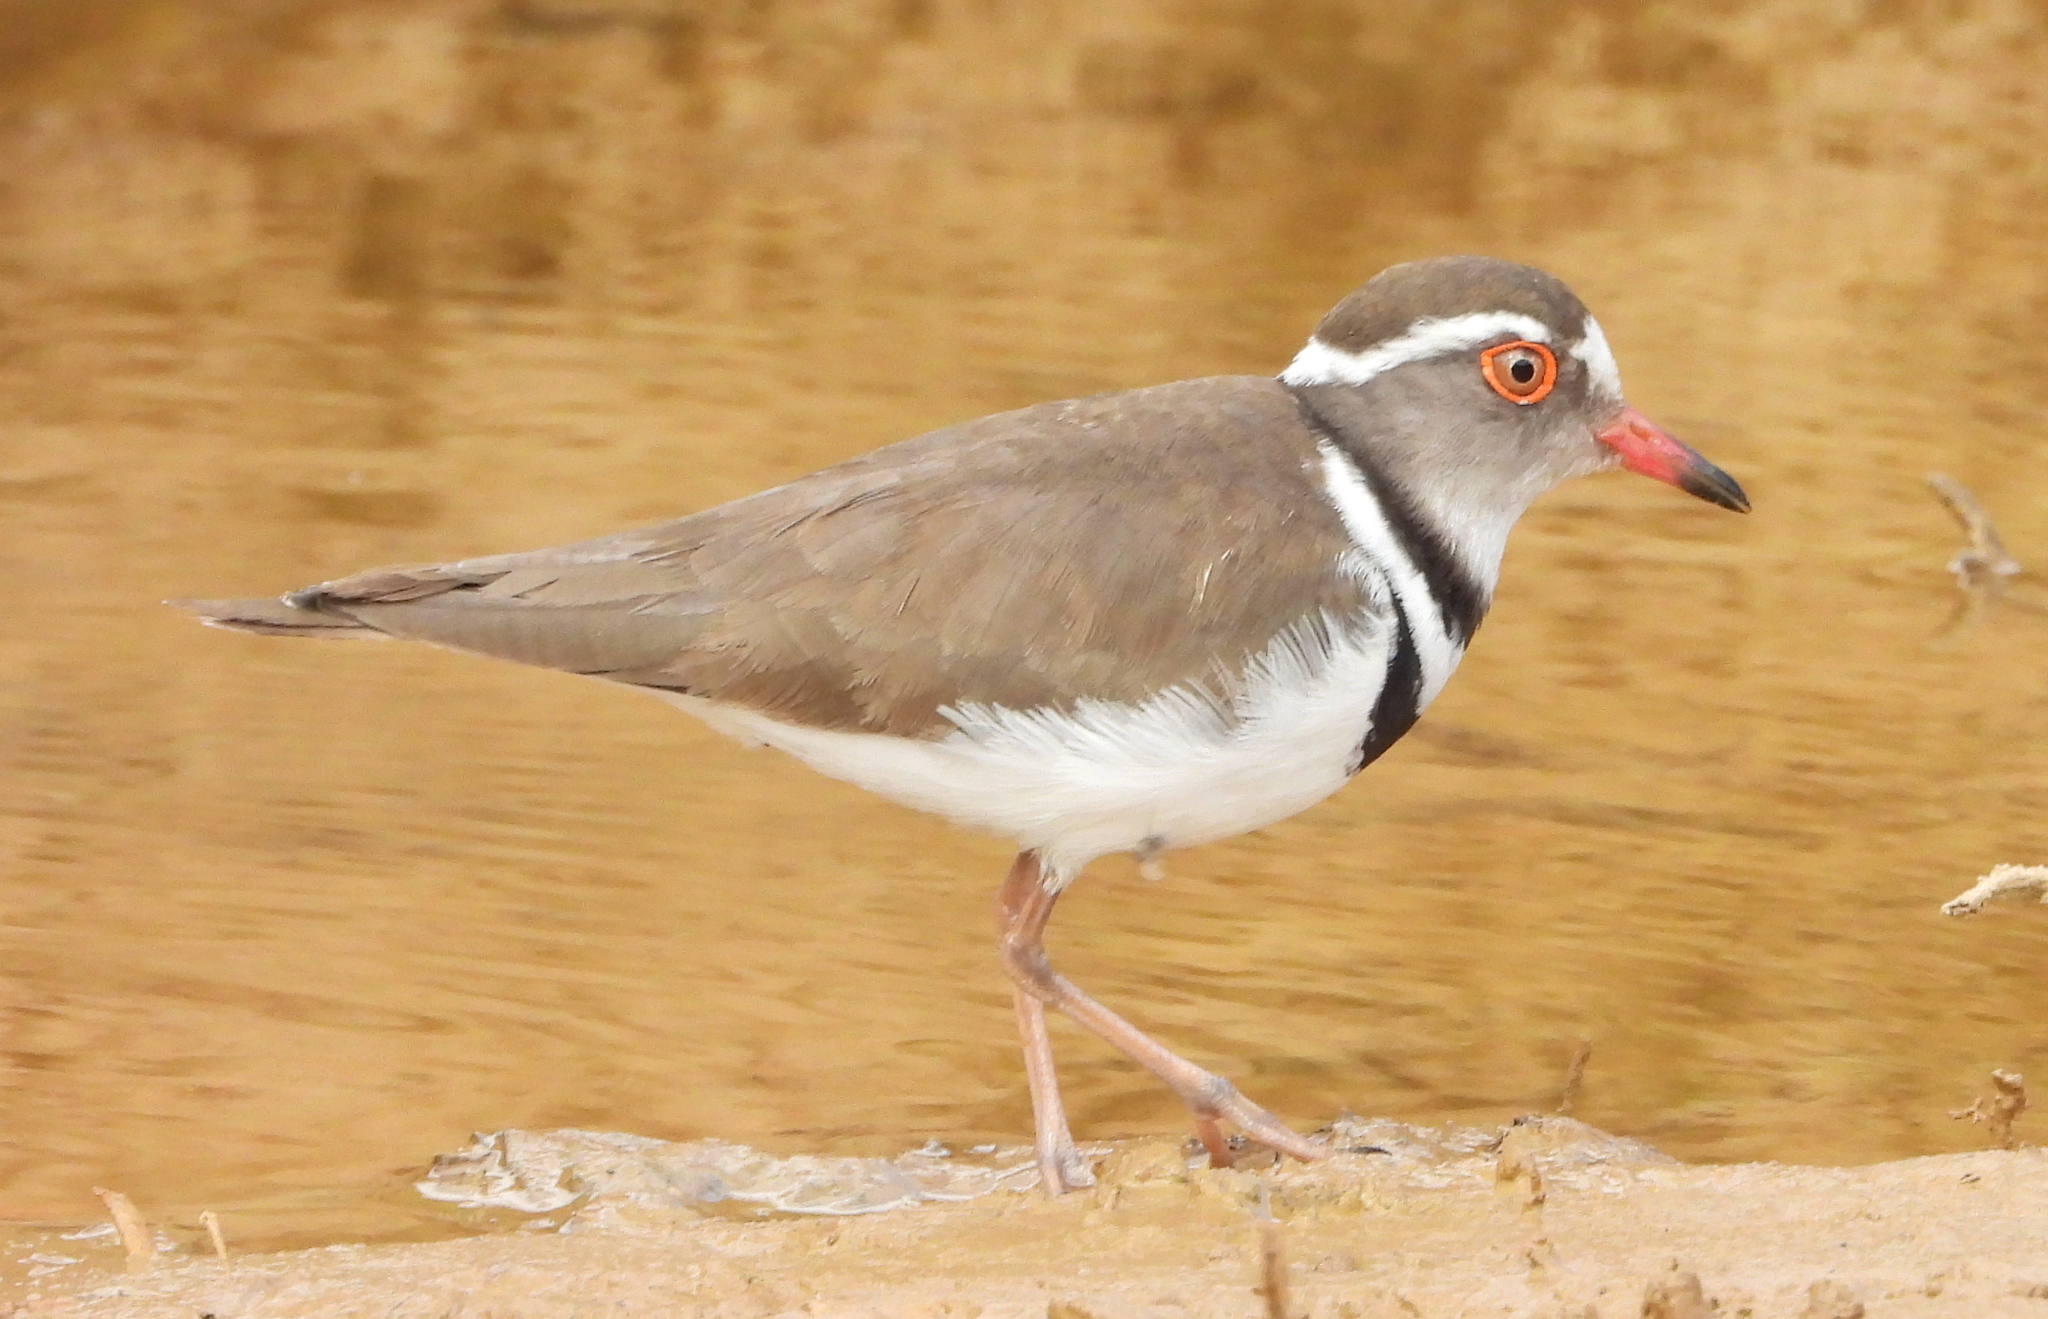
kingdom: Animalia
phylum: Chordata
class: Aves
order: Charadriiformes
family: Charadriidae
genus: Charadrius
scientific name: Charadrius tricollaris
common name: Three-banded plover
